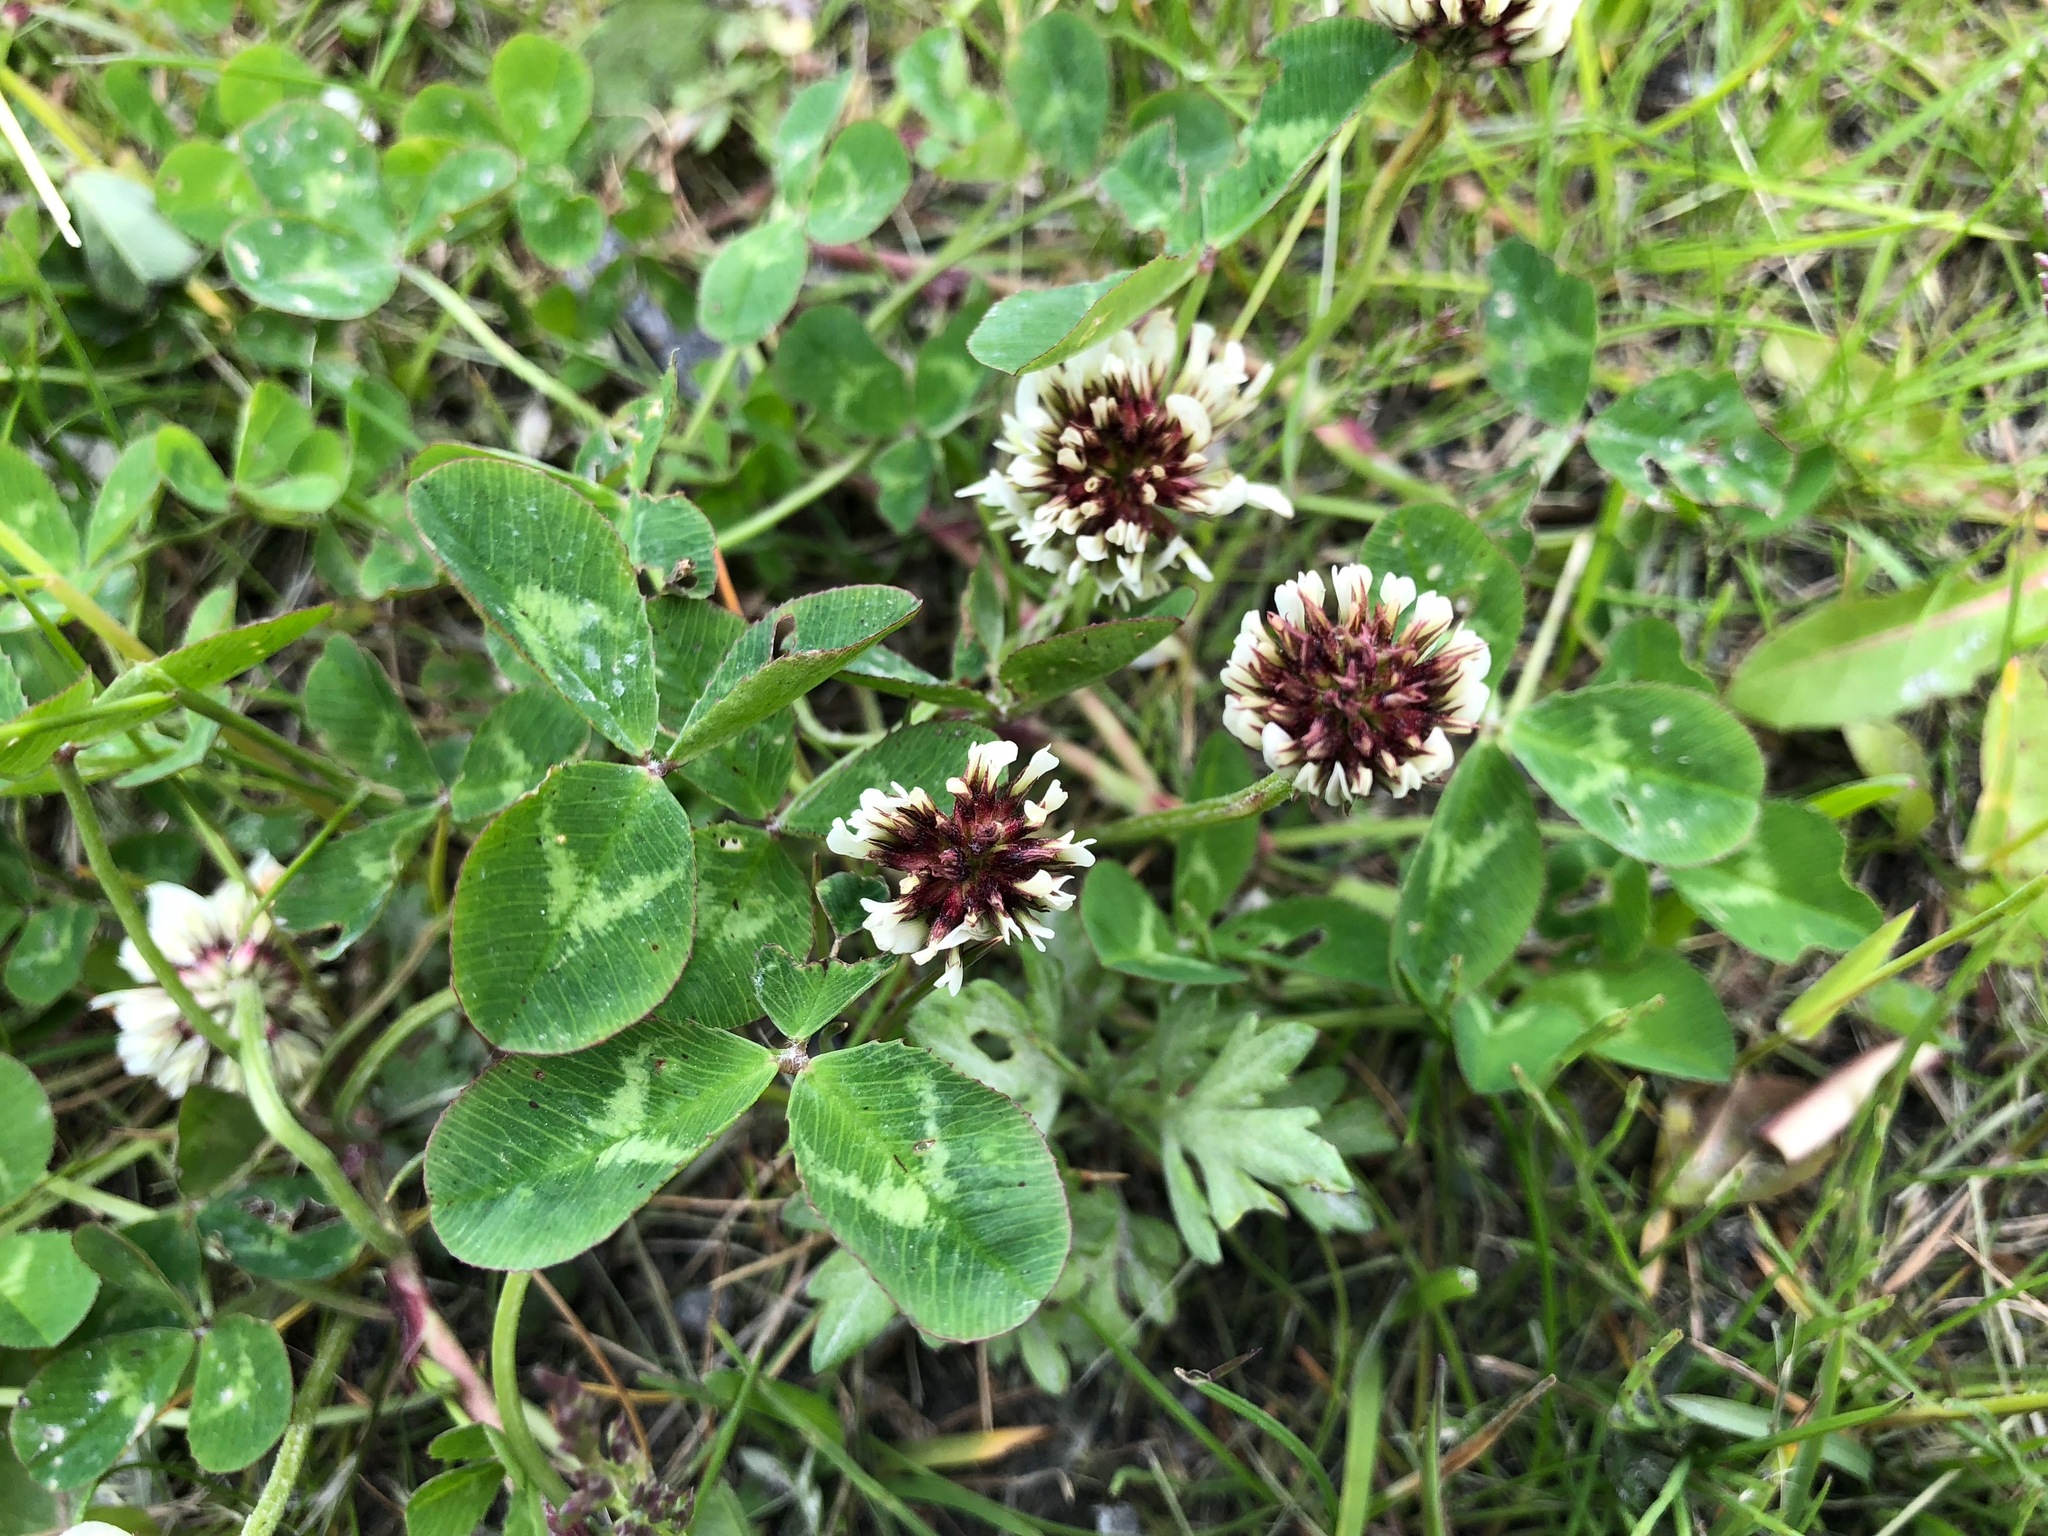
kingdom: Plantae
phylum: Tracheophyta
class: Magnoliopsida
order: Fabales
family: Fabaceae
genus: Trifolium
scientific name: Trifolium repens
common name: White clover
